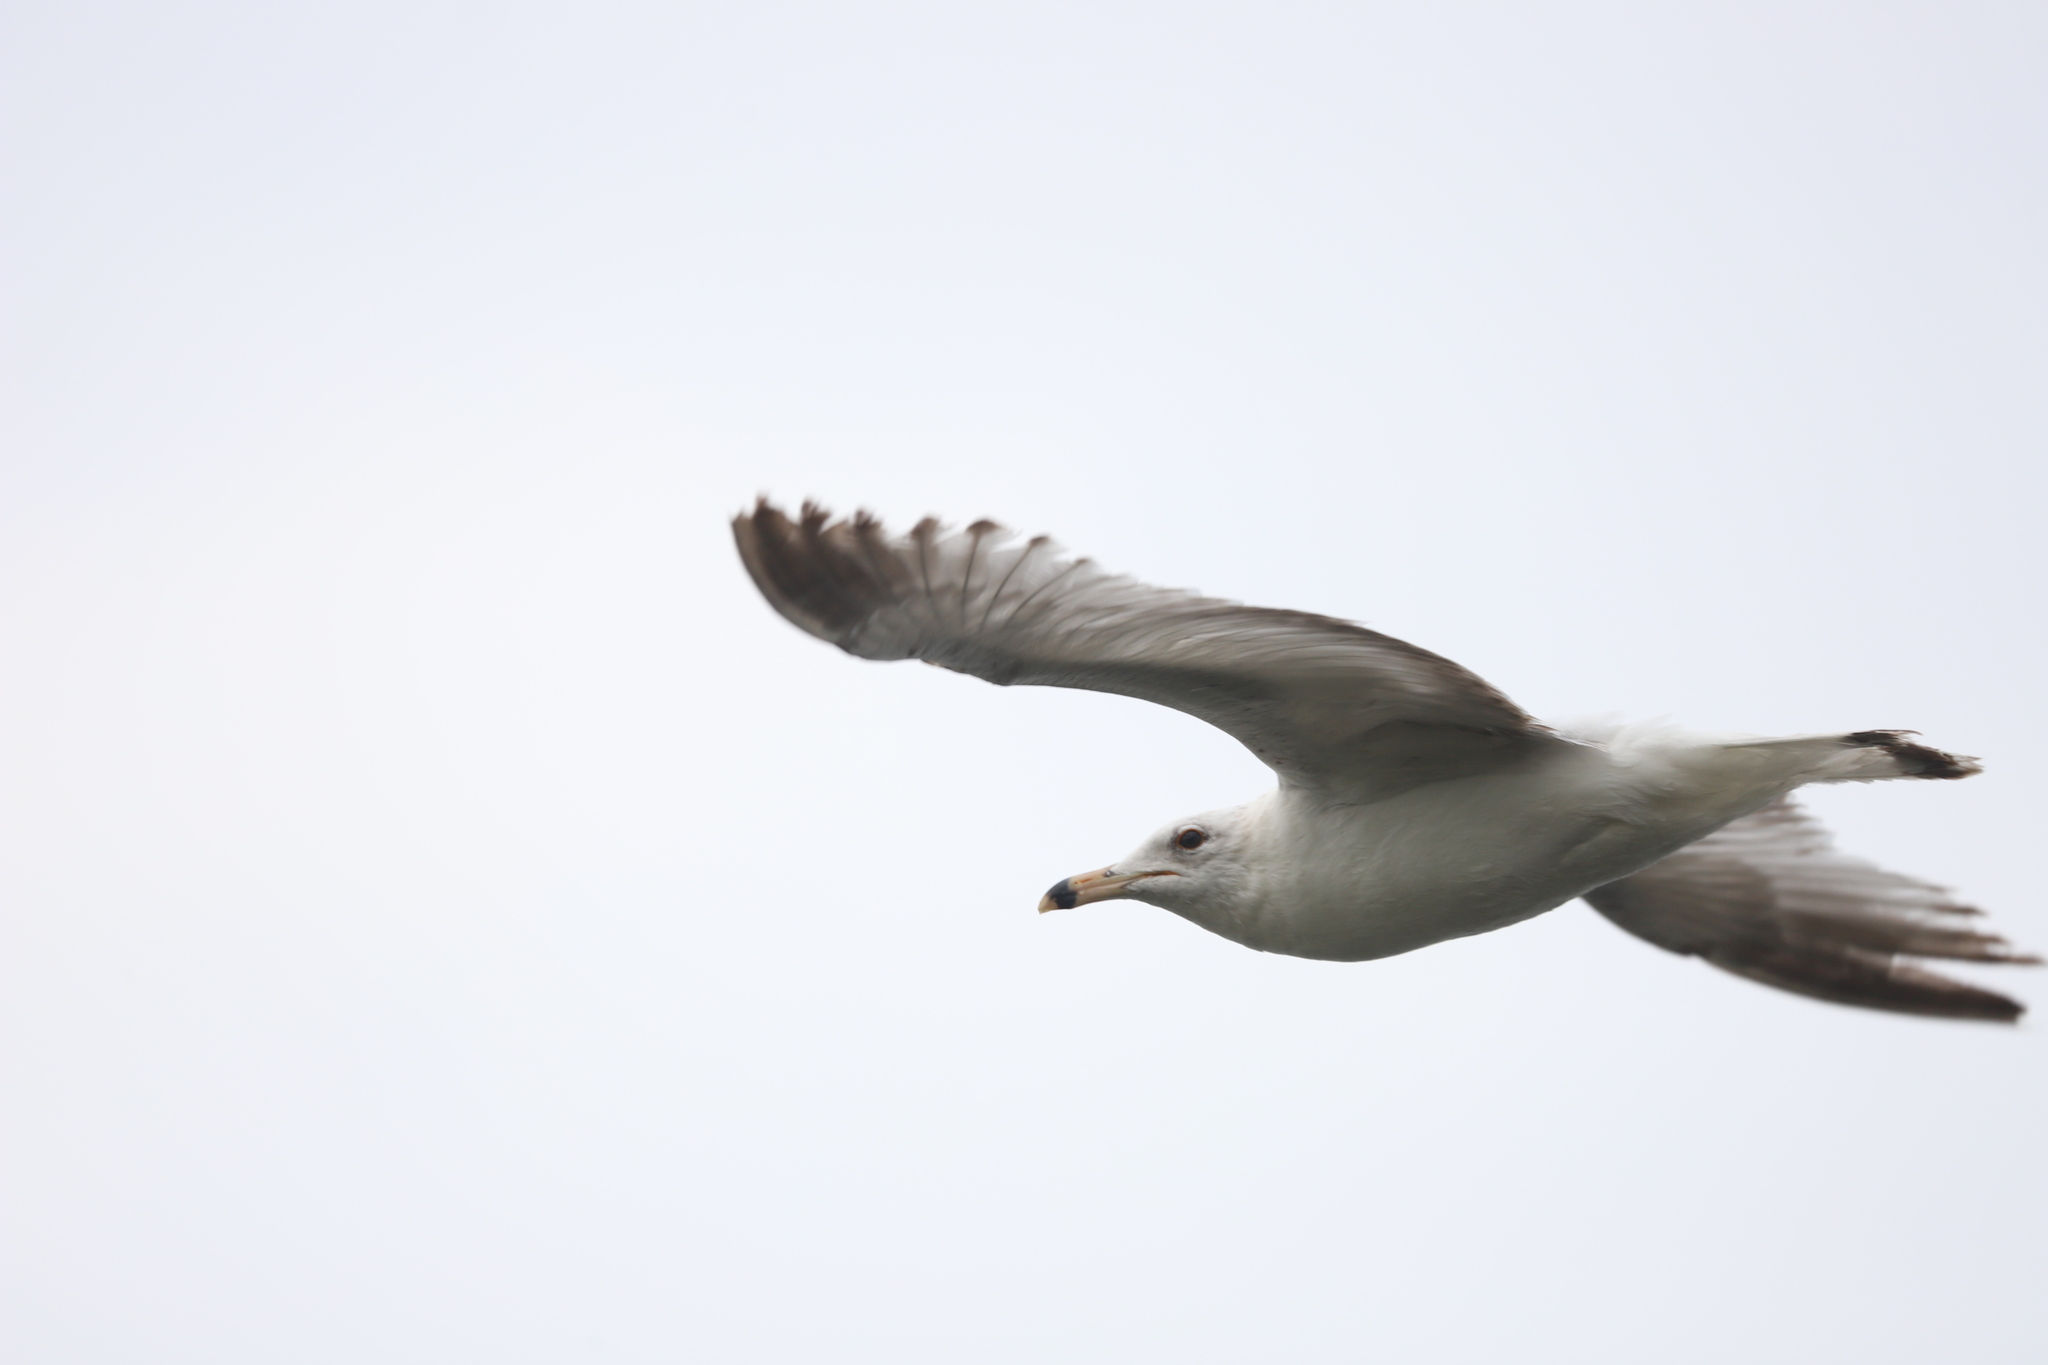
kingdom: Animalia
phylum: Chordata
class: Aves
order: Charadriiformes
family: Laridae
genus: Larus
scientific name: Larus delawarensis
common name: Ring-billed gull
